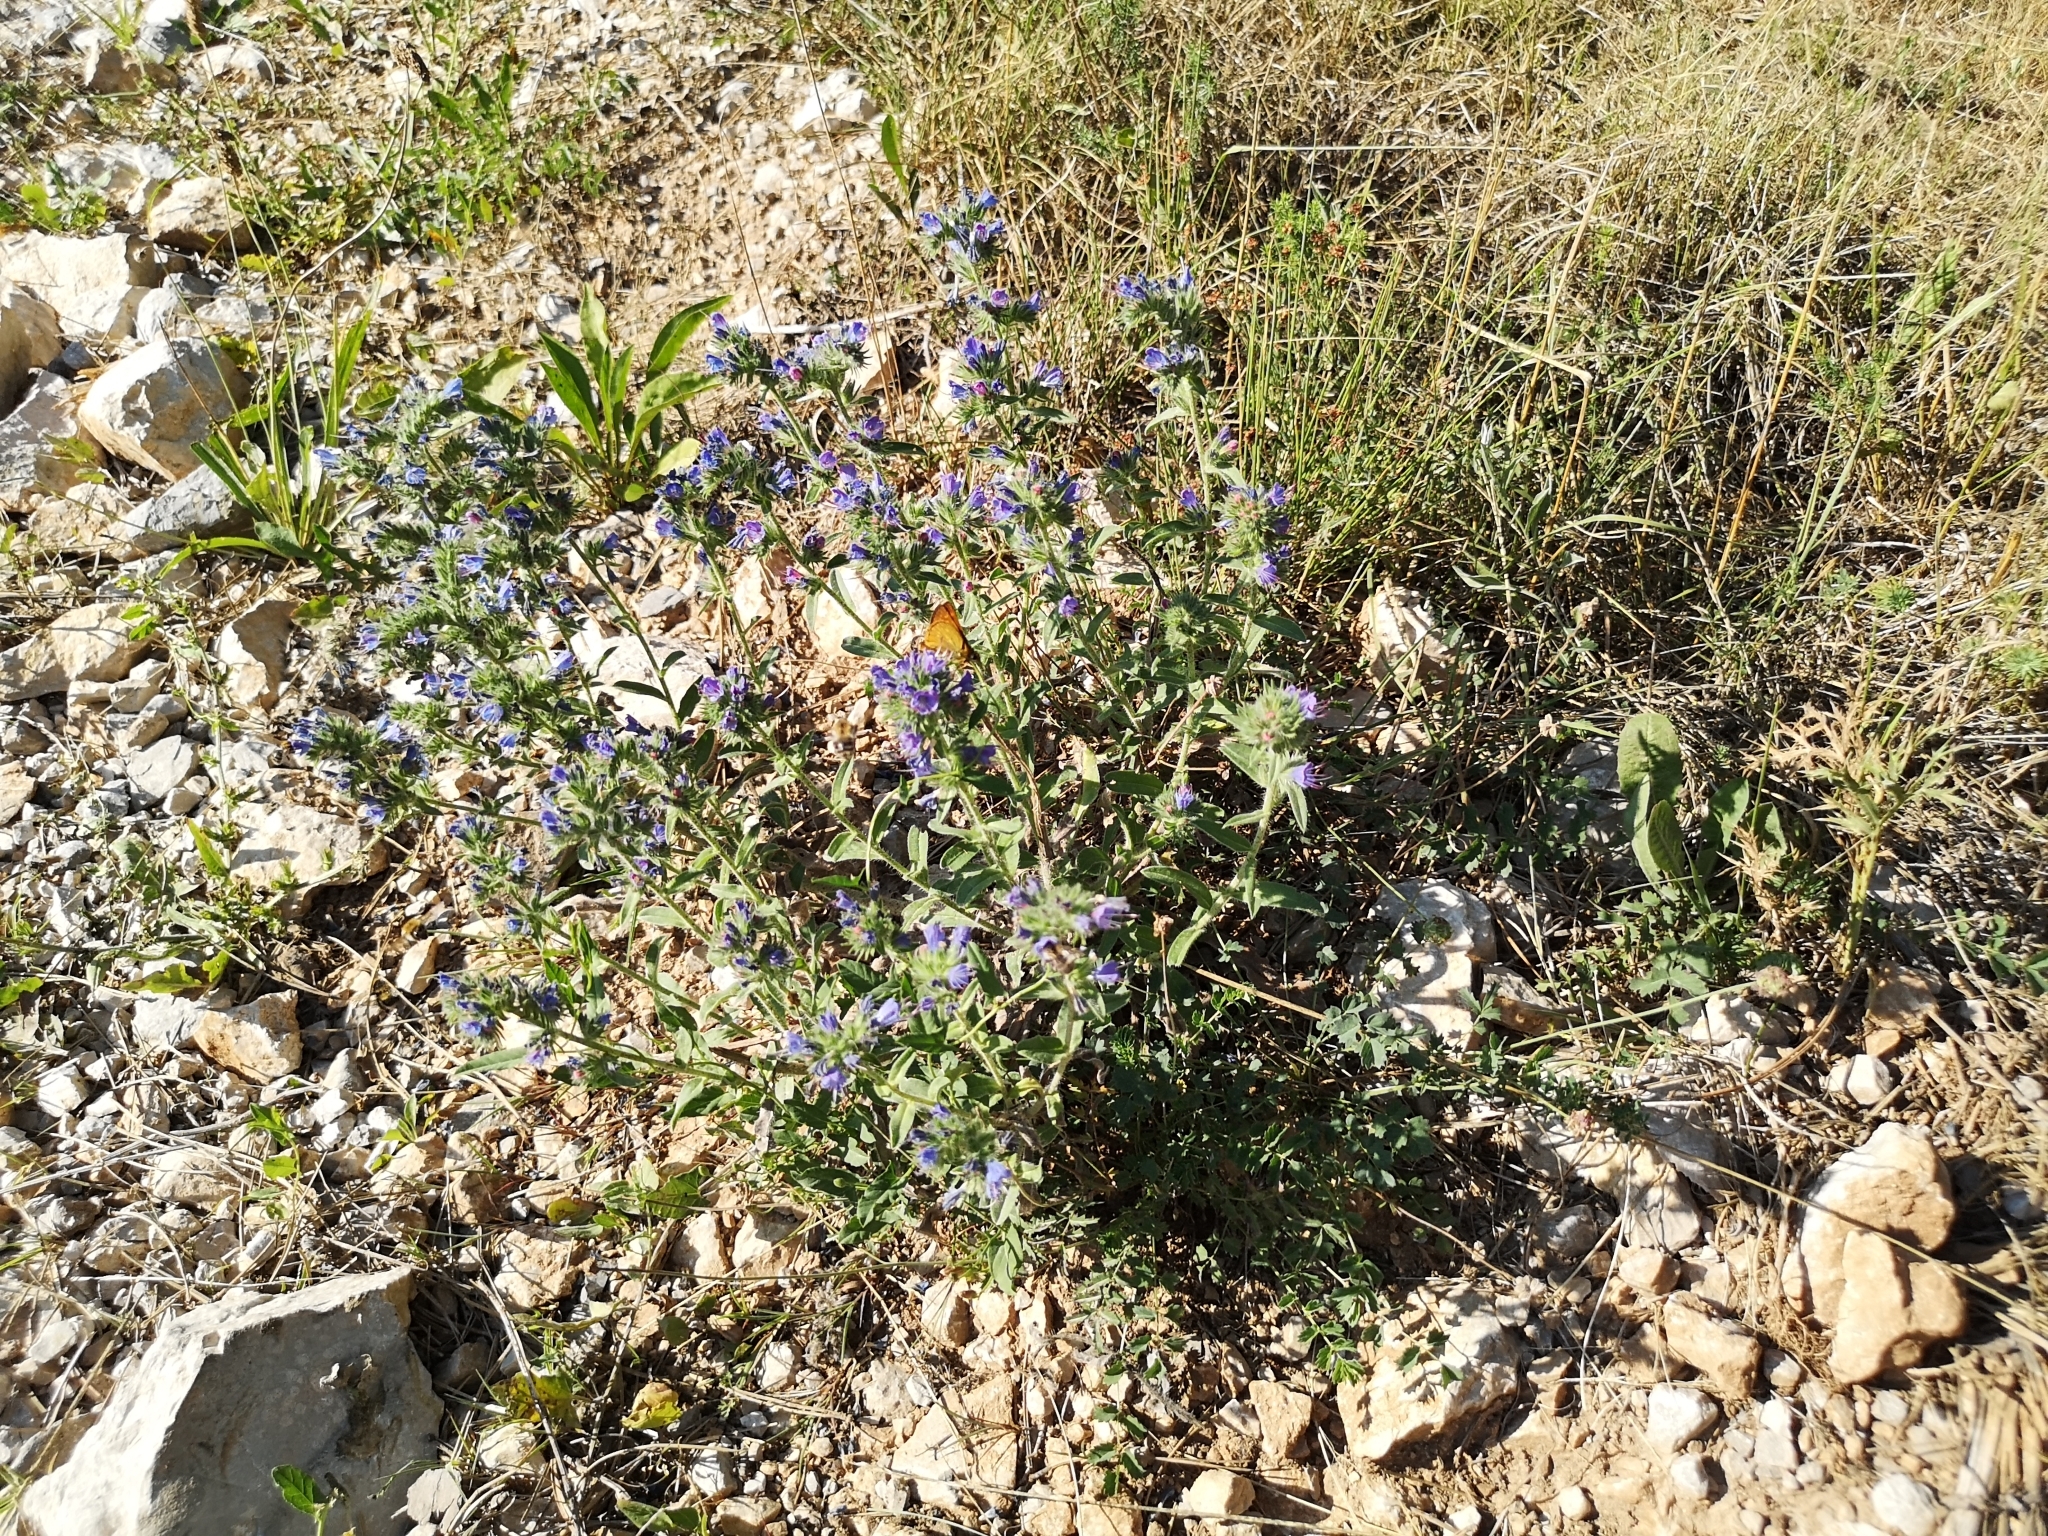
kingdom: Plantae
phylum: Tracheophyta
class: Magnoliopsida
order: Boraginales
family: Boraginaceae
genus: Echium
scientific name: Echium vulgare
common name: Common viper's bugloss
